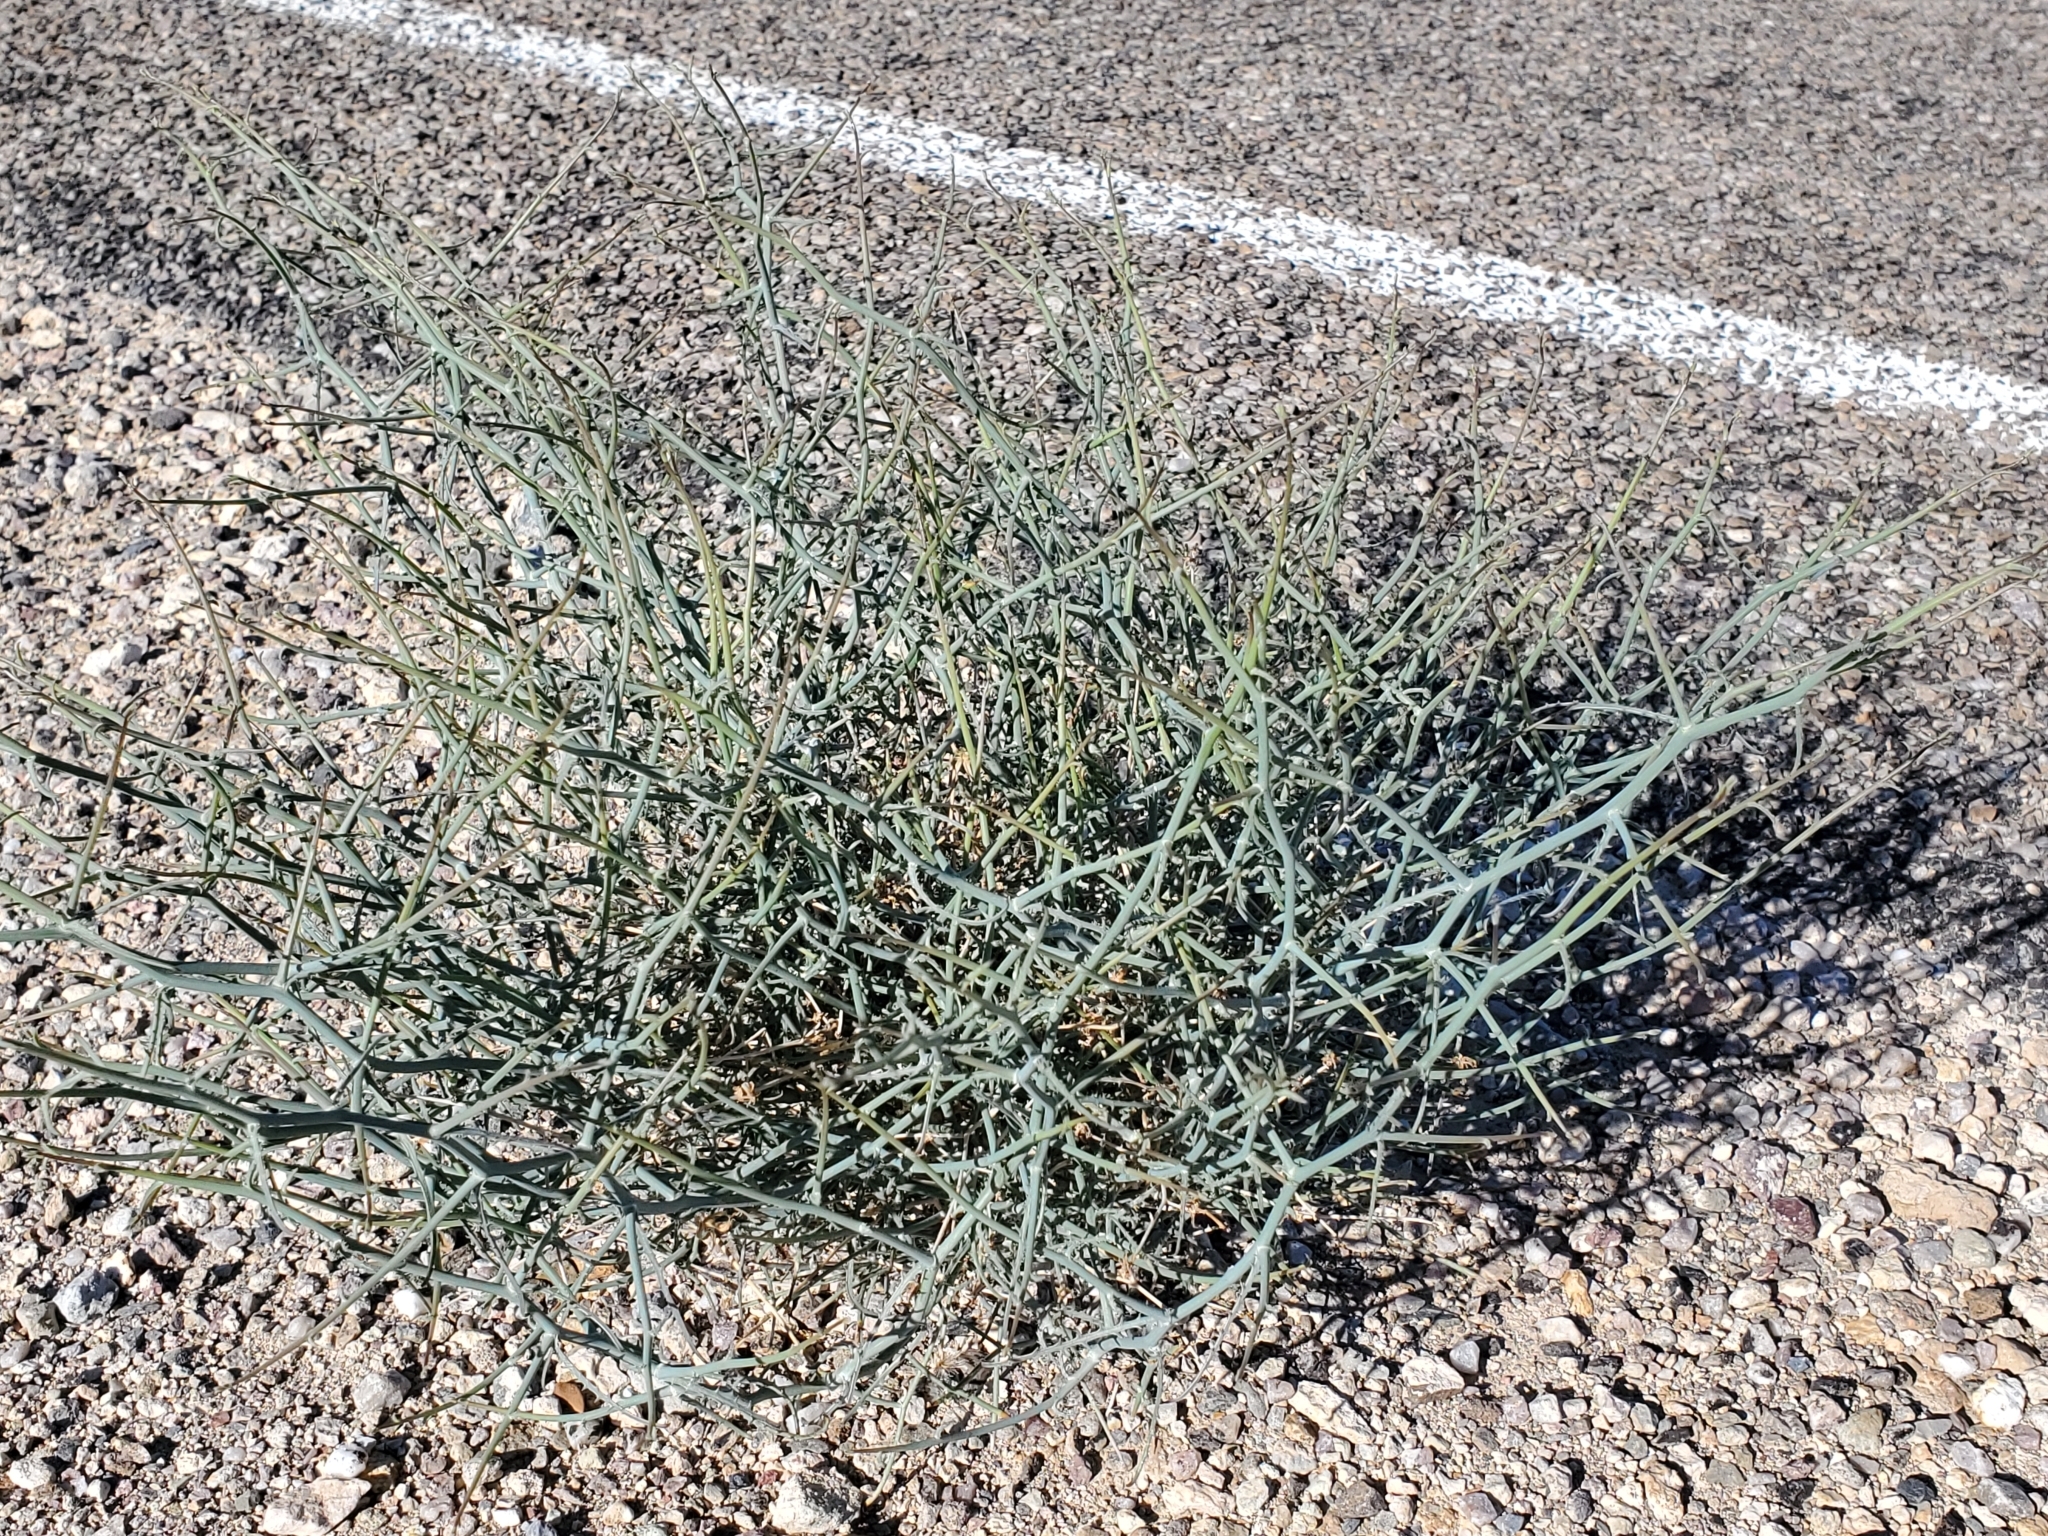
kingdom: Plantae
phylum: Tracheophyta
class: Magnoliopsida
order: Asterales
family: Asteraceae
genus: Stephanomeria
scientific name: Stephanomeria pauciflora
